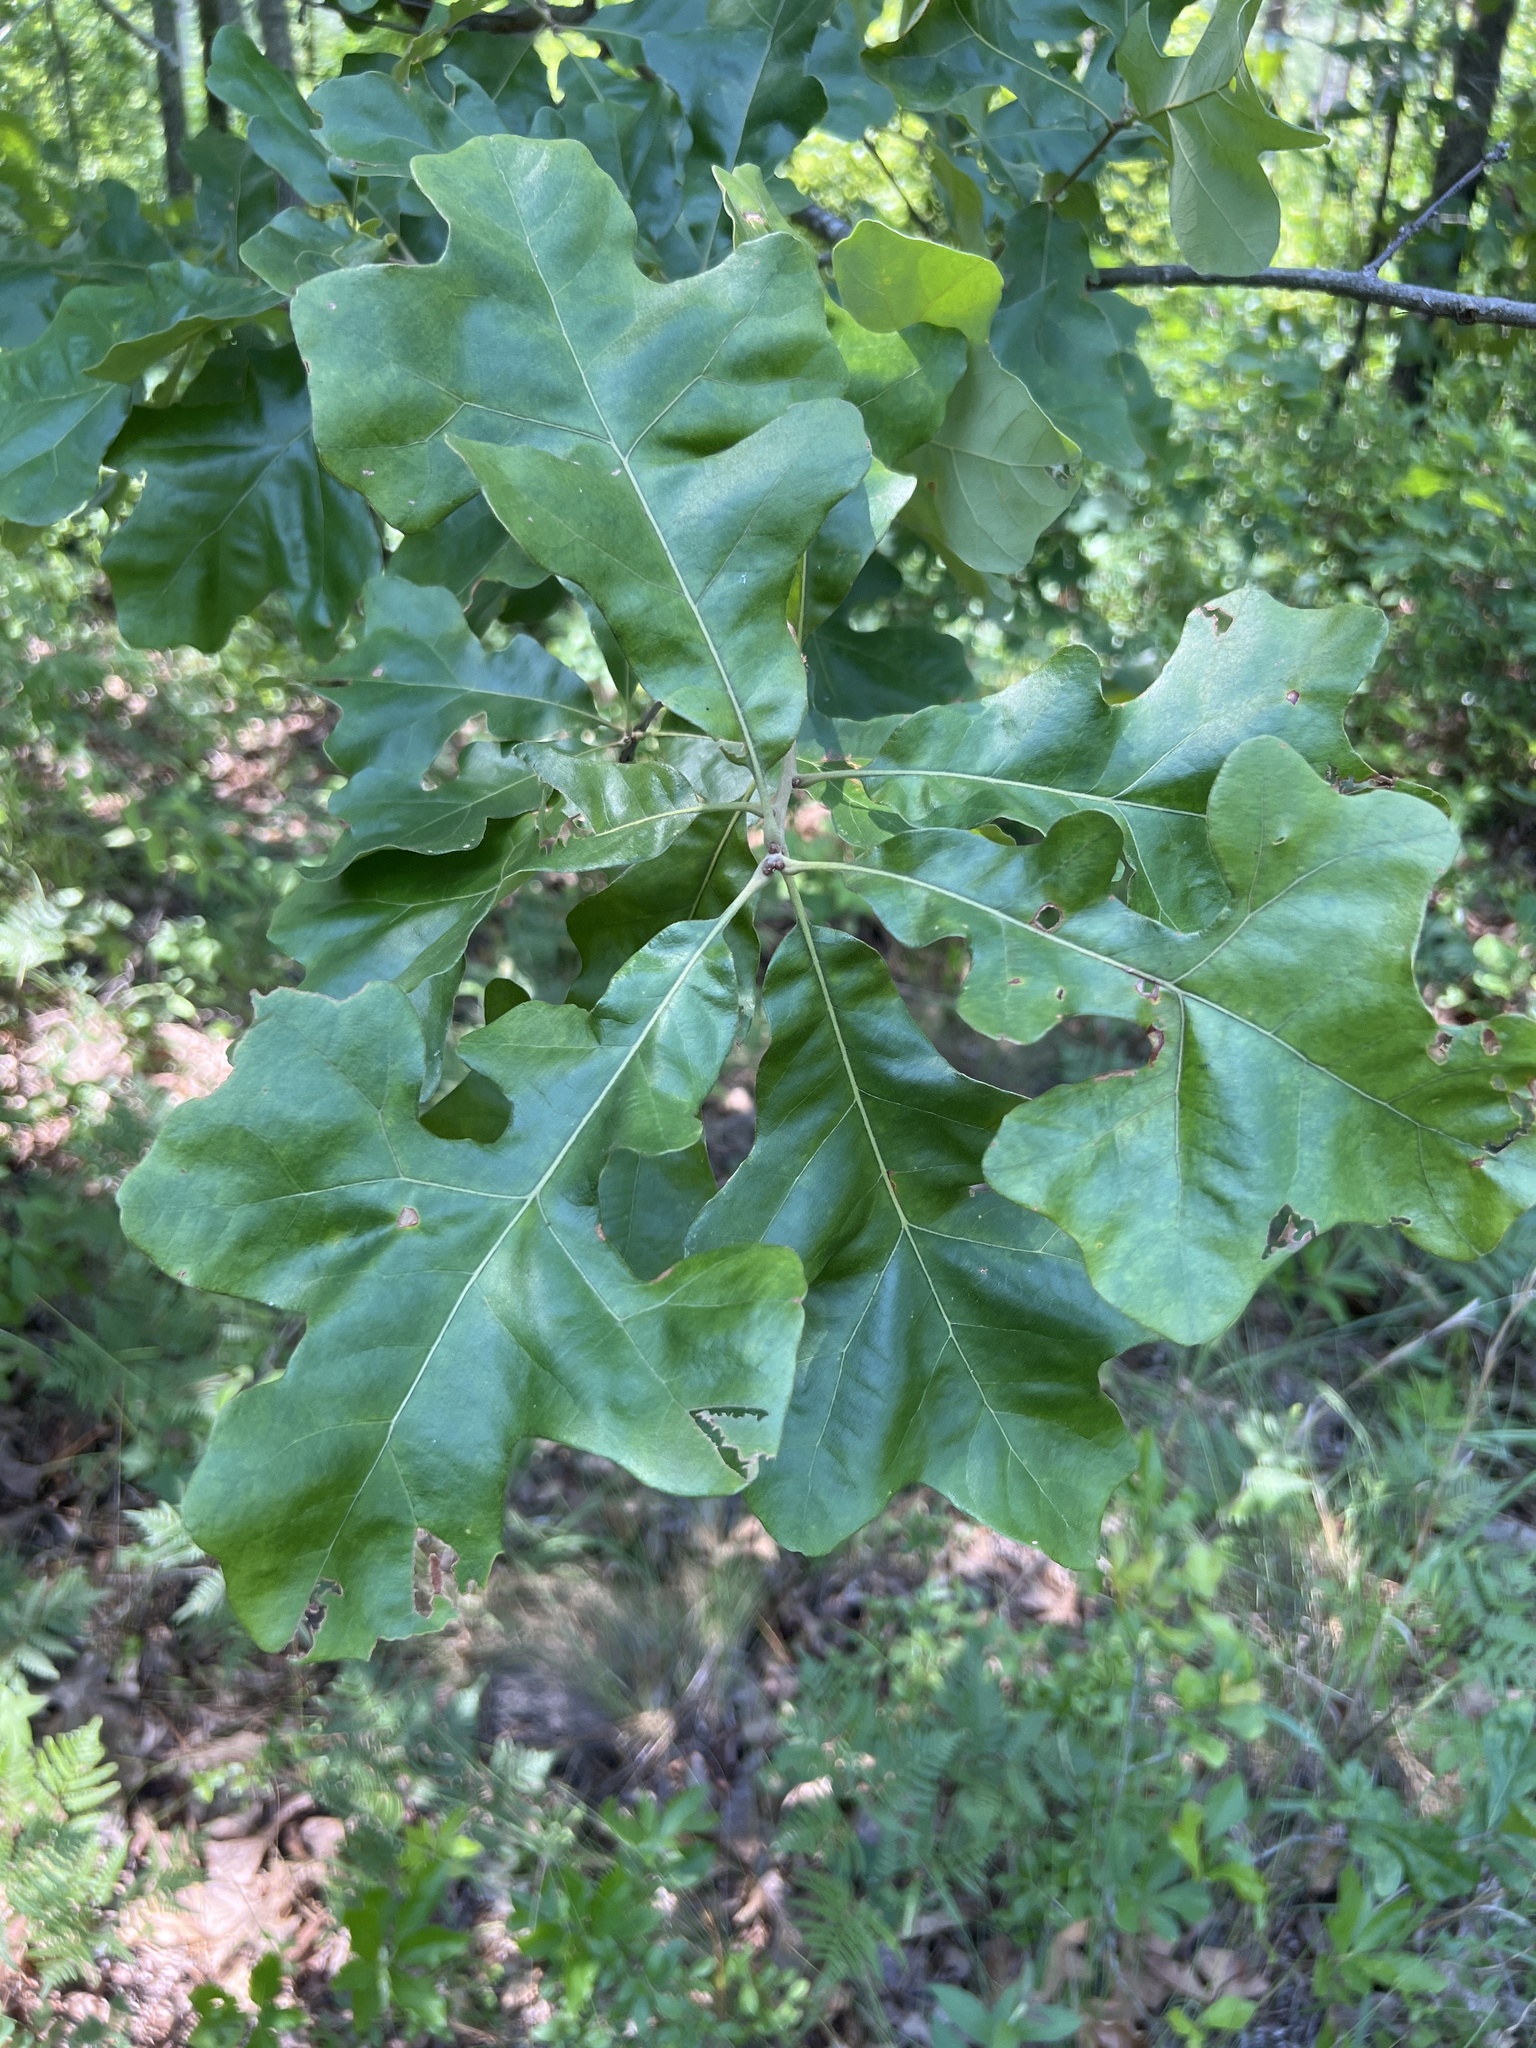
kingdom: Plantae
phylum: Tracheophyta
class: Magnoliopsida
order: Fagales
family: Fagaceae
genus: Quercus
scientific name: Quercus stellata
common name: Post oak
